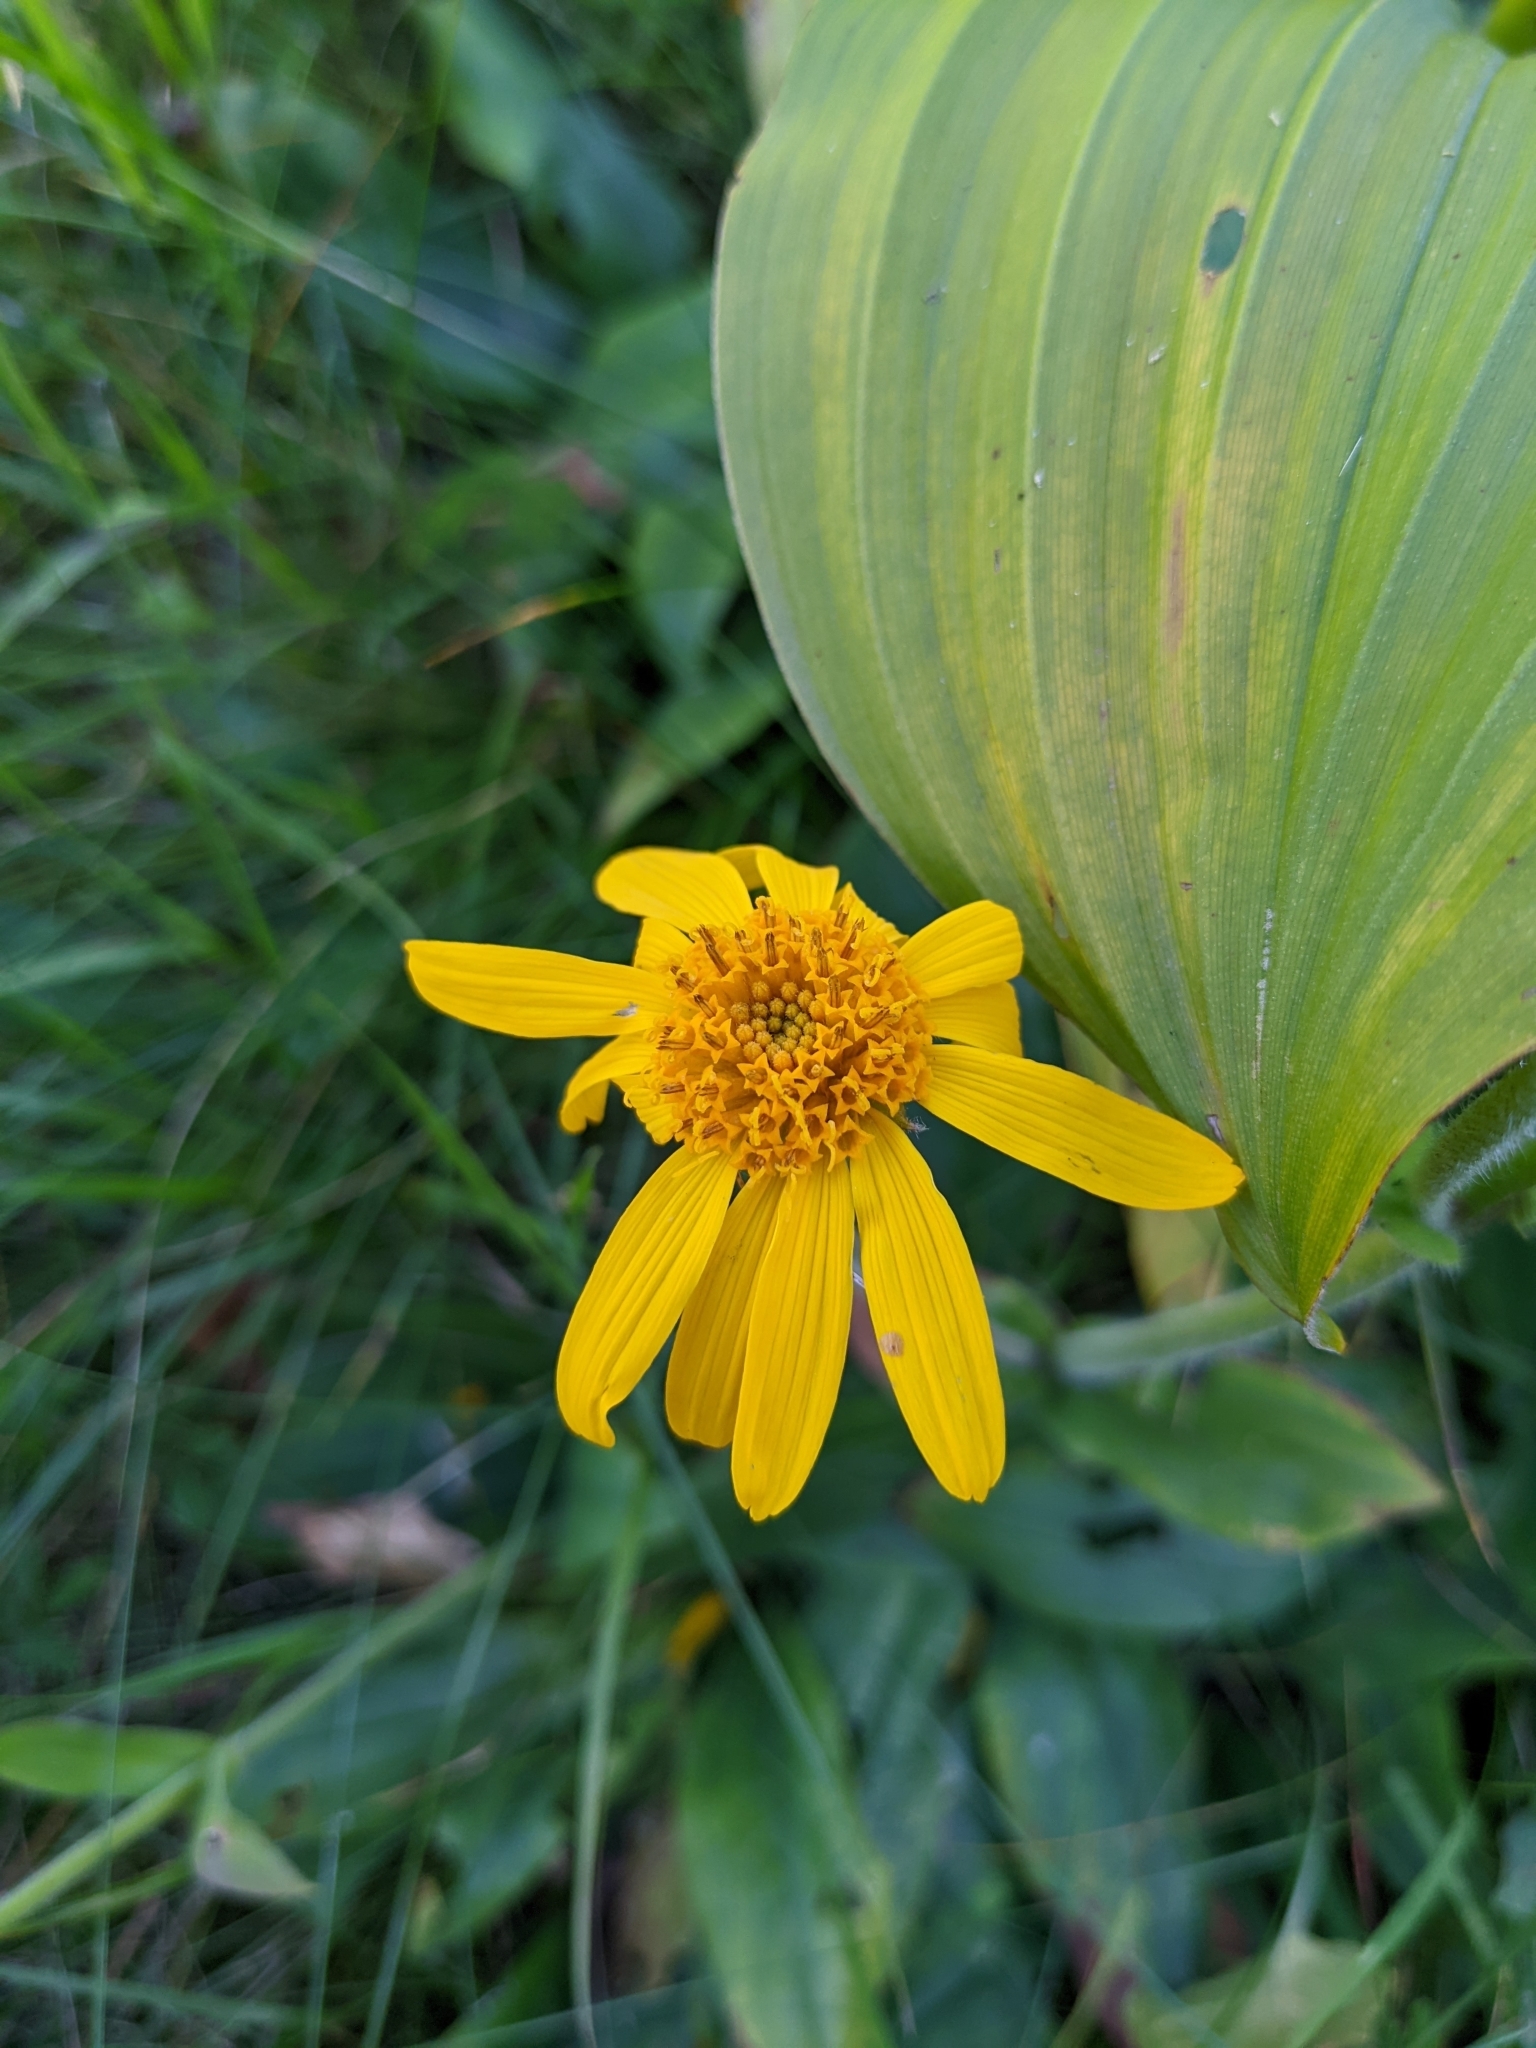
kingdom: Plantae
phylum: Tracheophyta
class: Magnoliopsida
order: Asterales
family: Asteraceae
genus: Arnica
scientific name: Arnica montana
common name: Leopard's bane
